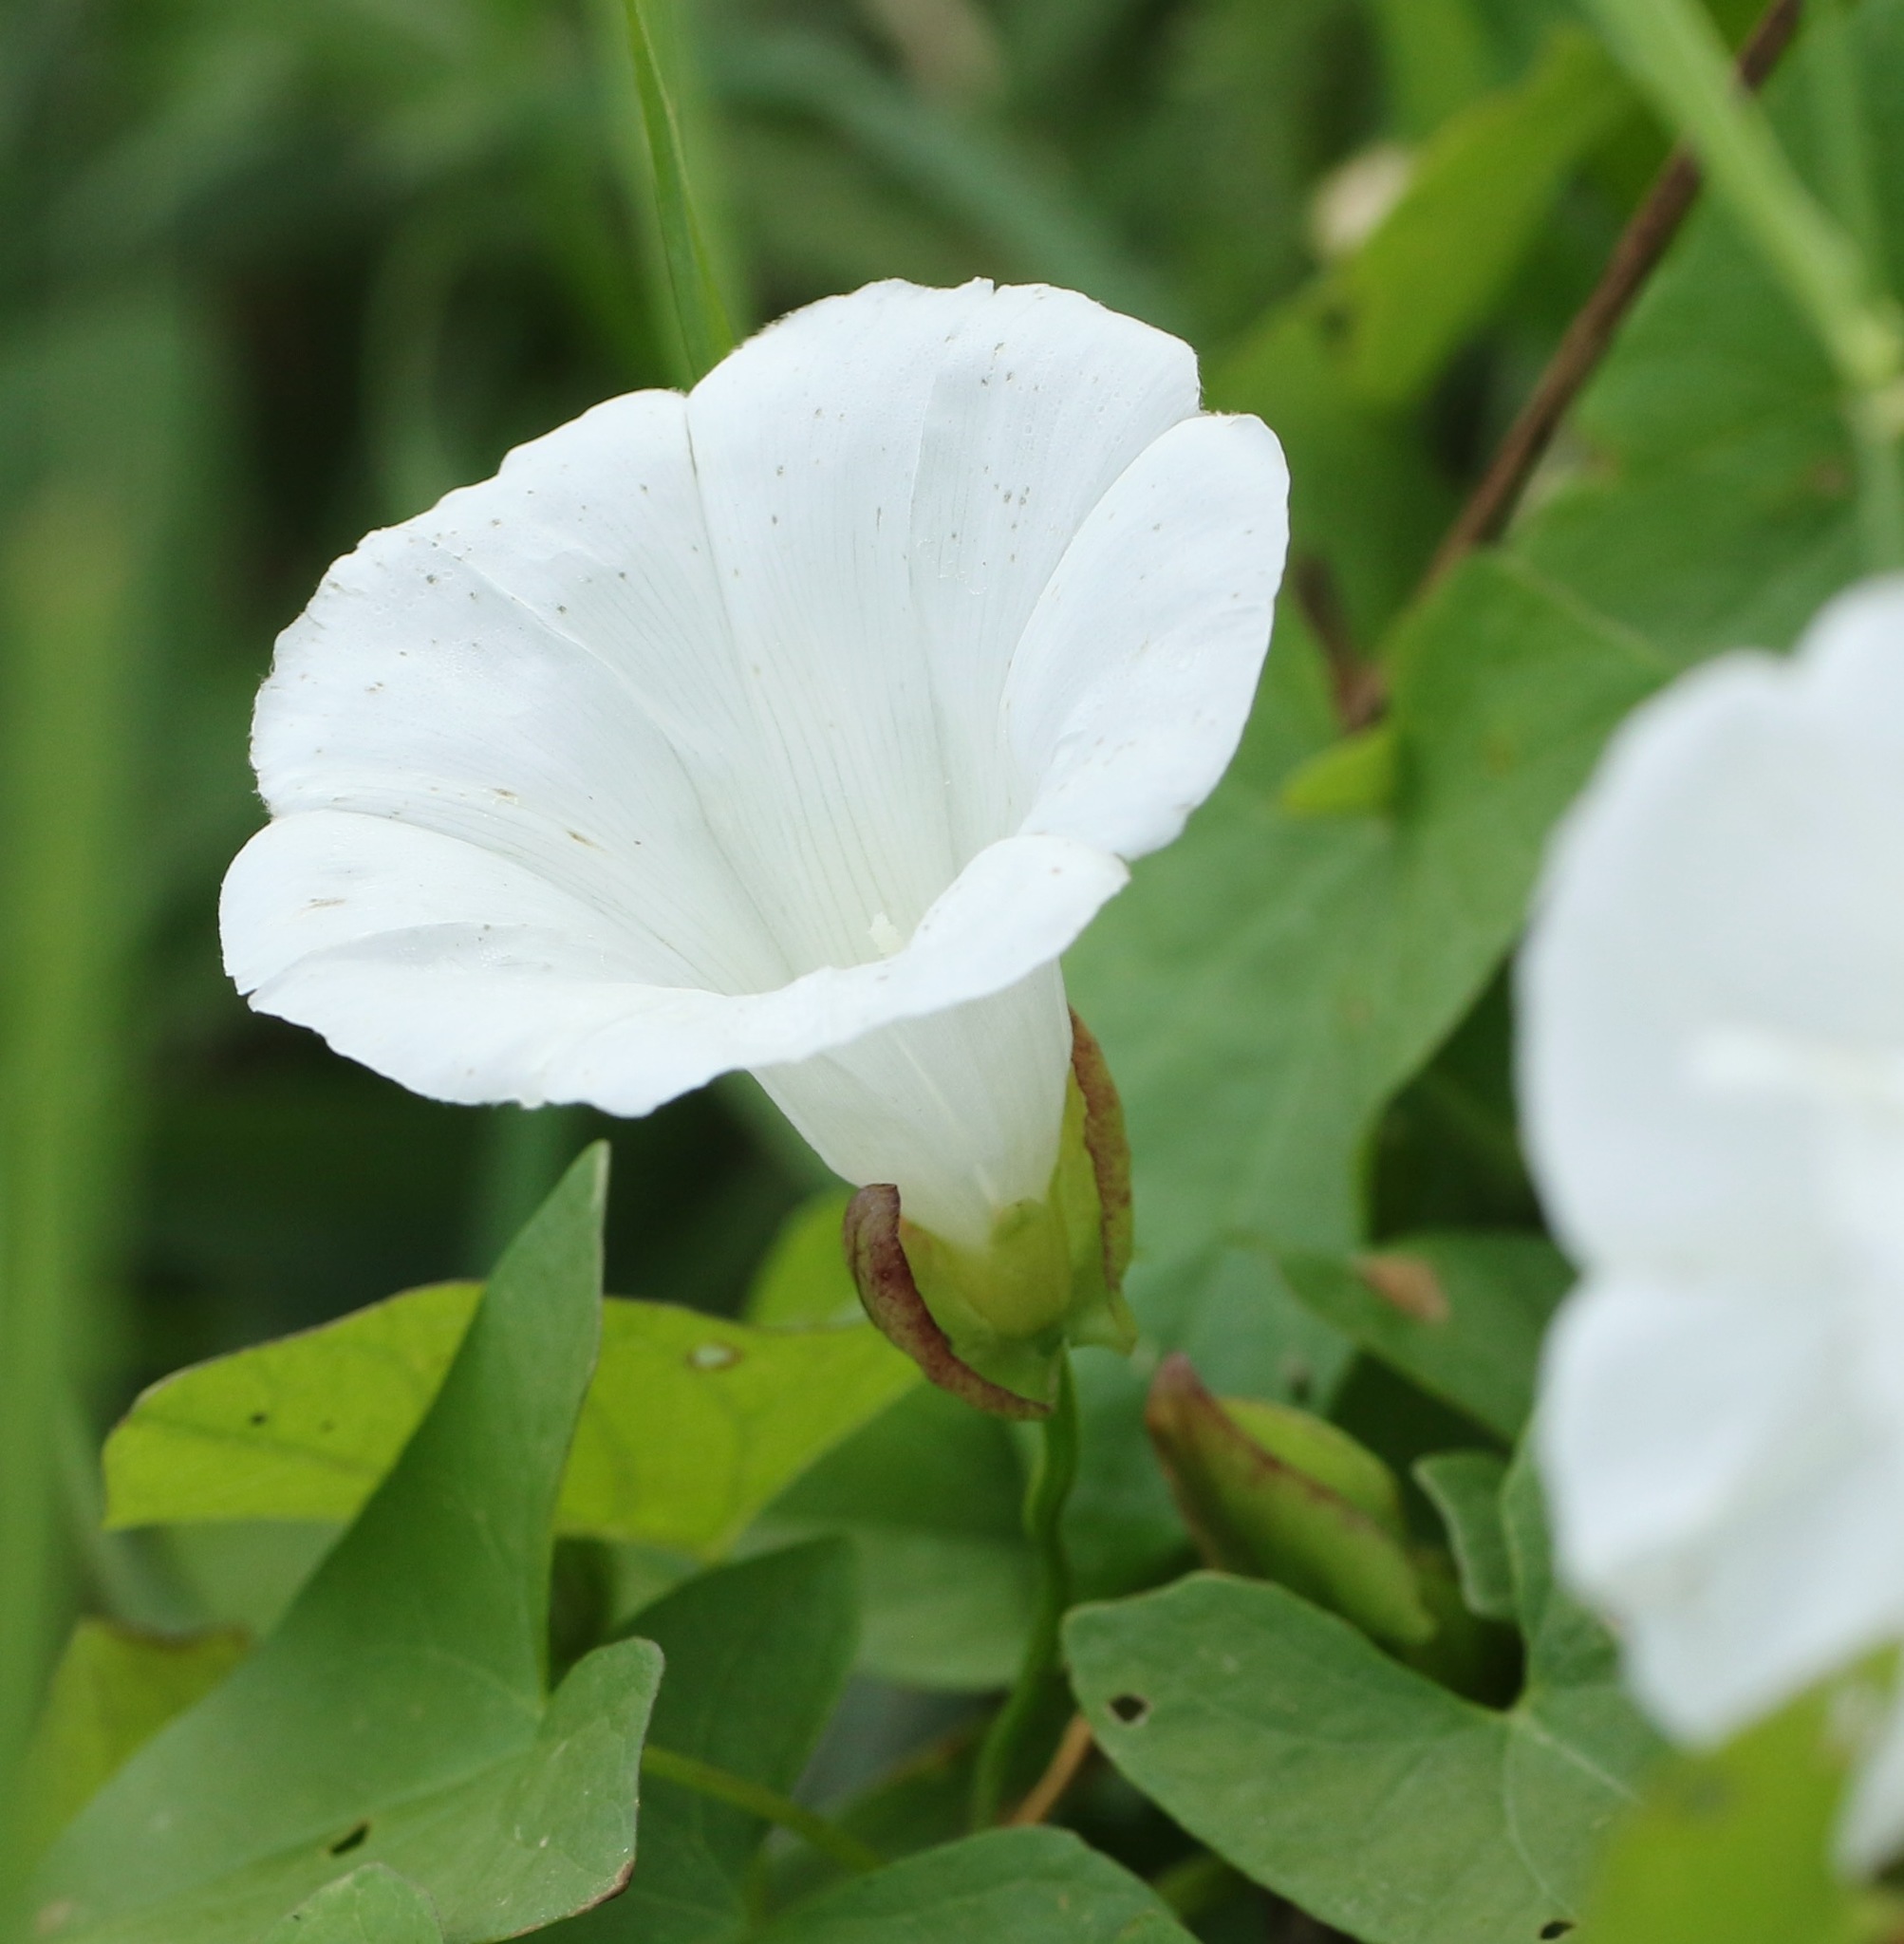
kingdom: Plantae
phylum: Tracheophyta
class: Magnoliopsida
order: Solanales
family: Convolvulaceae
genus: Calystegia
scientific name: Calystegia sepium
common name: Hedge bindweed
